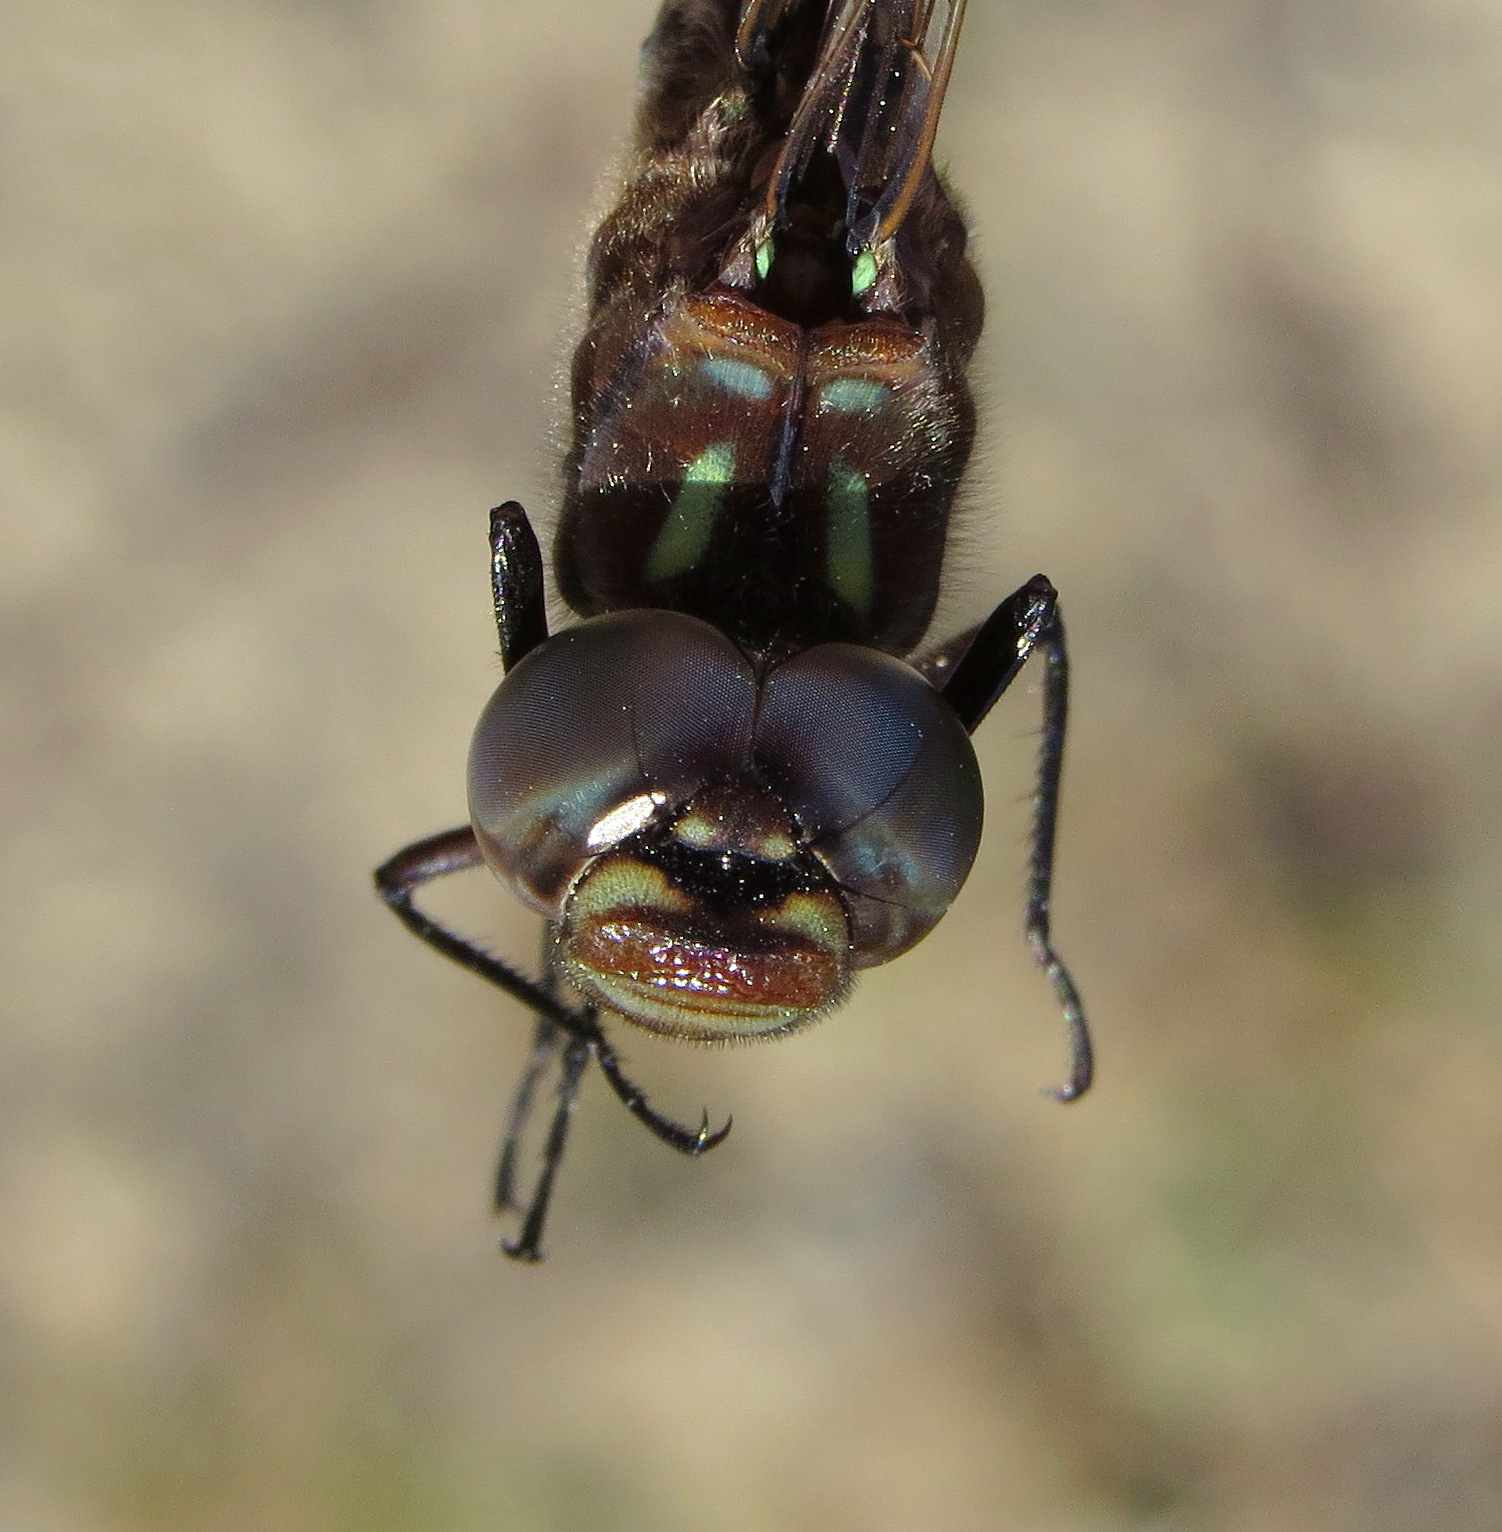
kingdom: Animalia
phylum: Arthropoda
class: Insecta
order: Odonata
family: Aeshnidae
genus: Gomphaeschna
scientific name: Gomphaeschna antilope
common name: Taper-tailed darner
